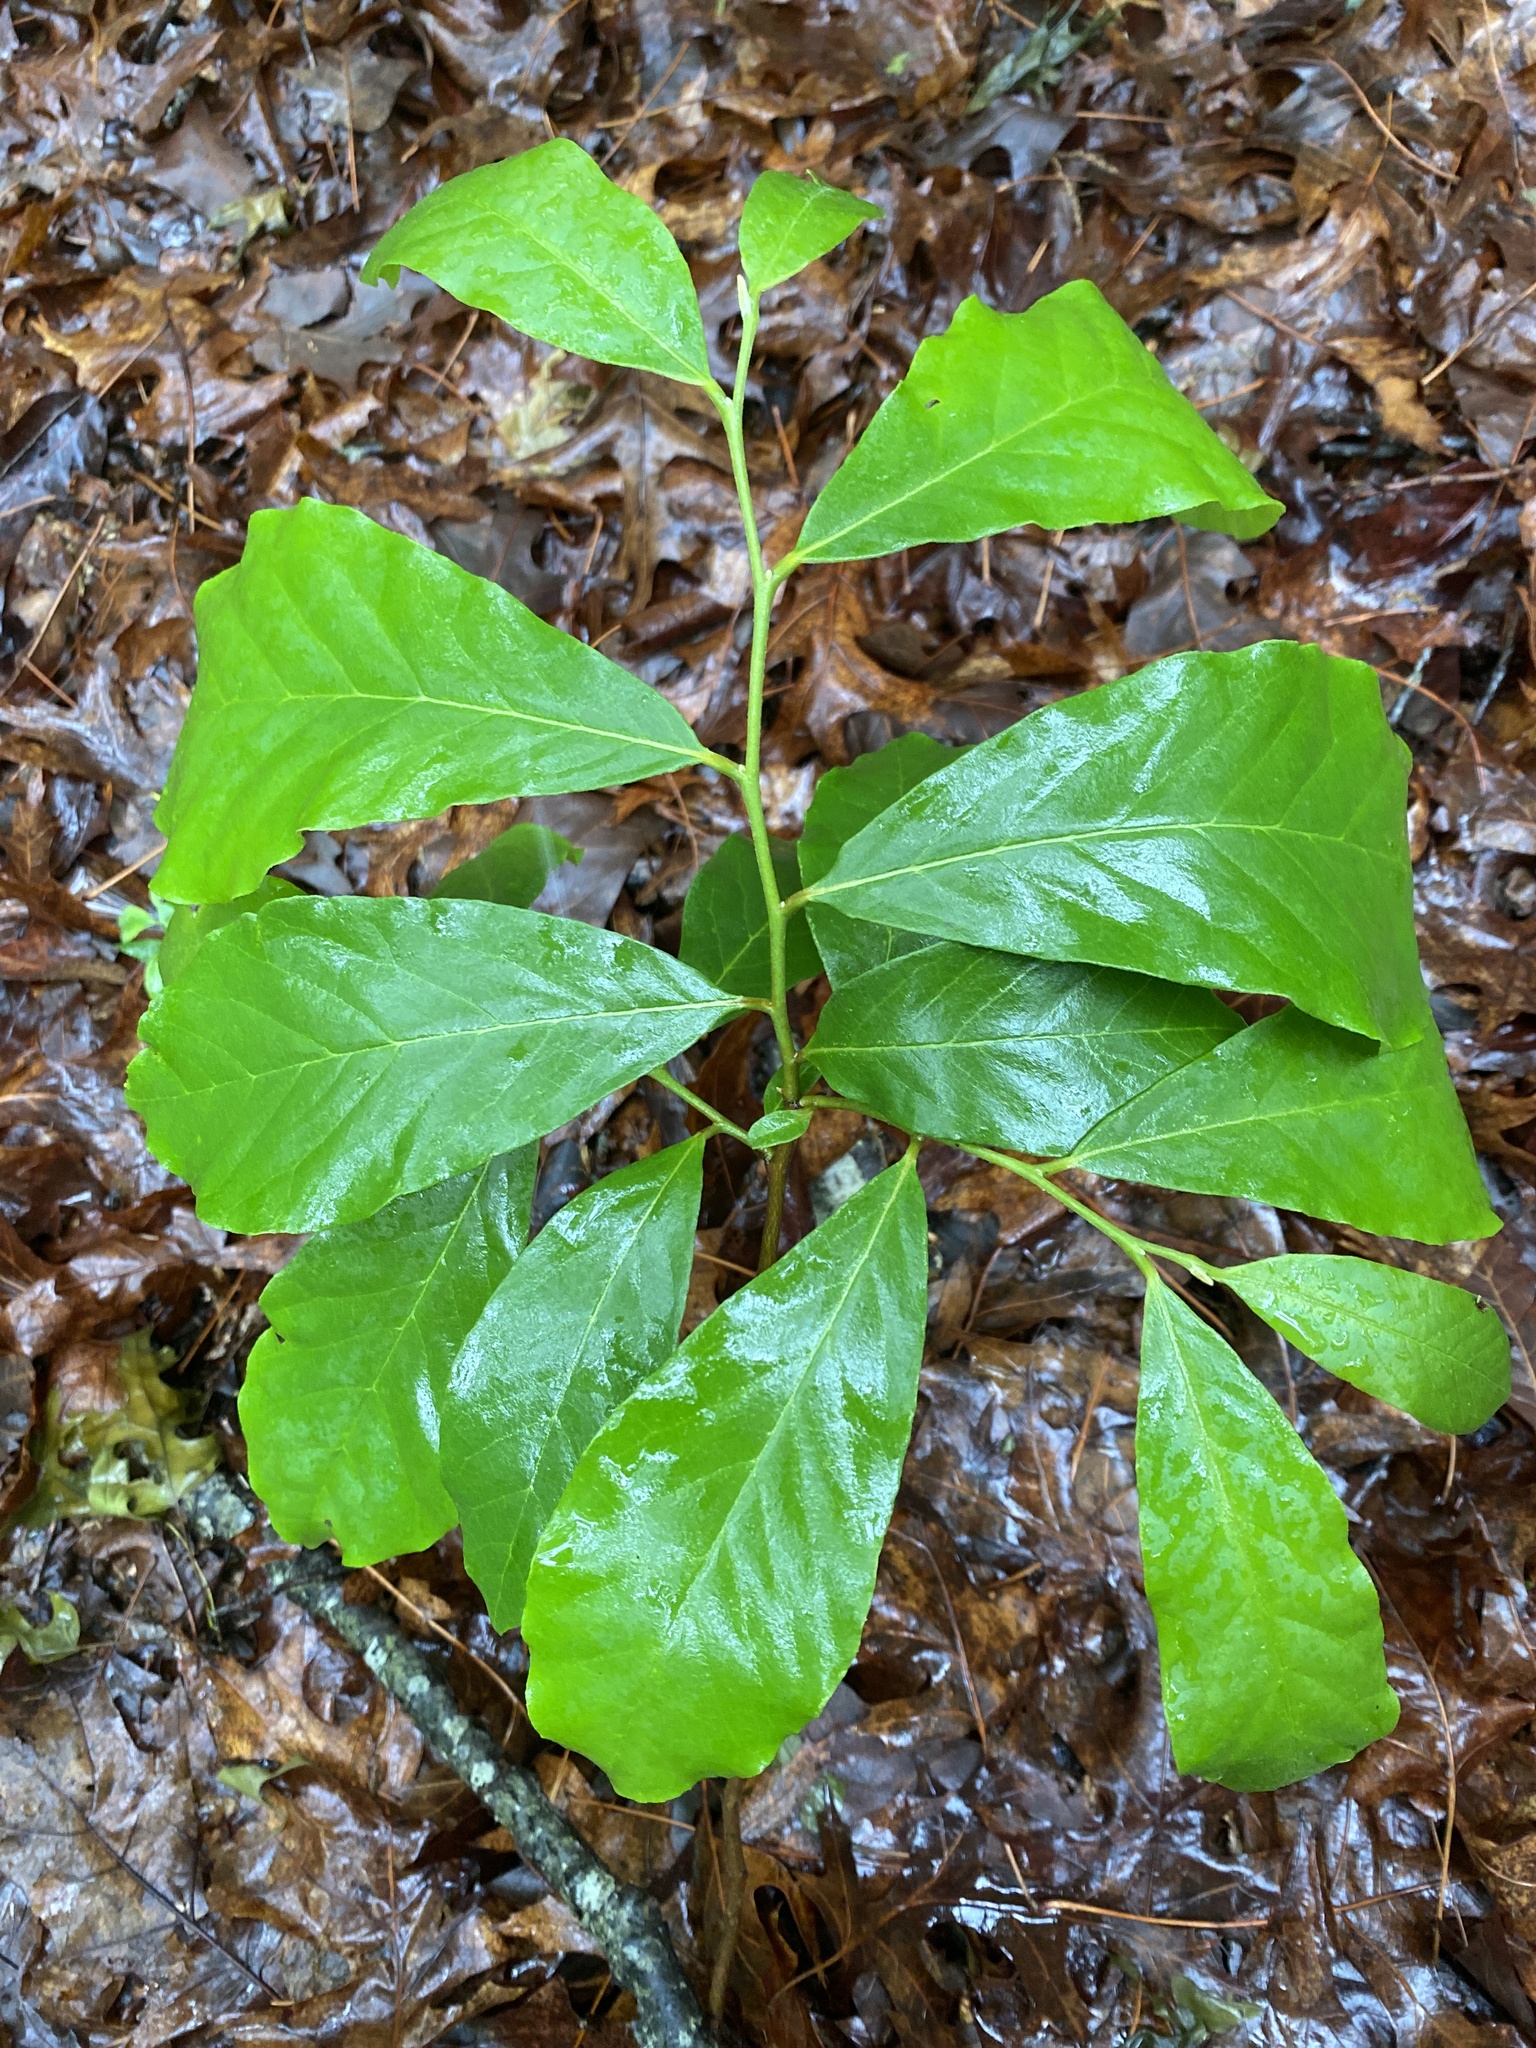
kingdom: Plantae
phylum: Tracheophyta
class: Magnoliopsida
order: Magnoliales
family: Annonaceae
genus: Asimina
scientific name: Asimina parviflora
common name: Dwarf pawpaw
